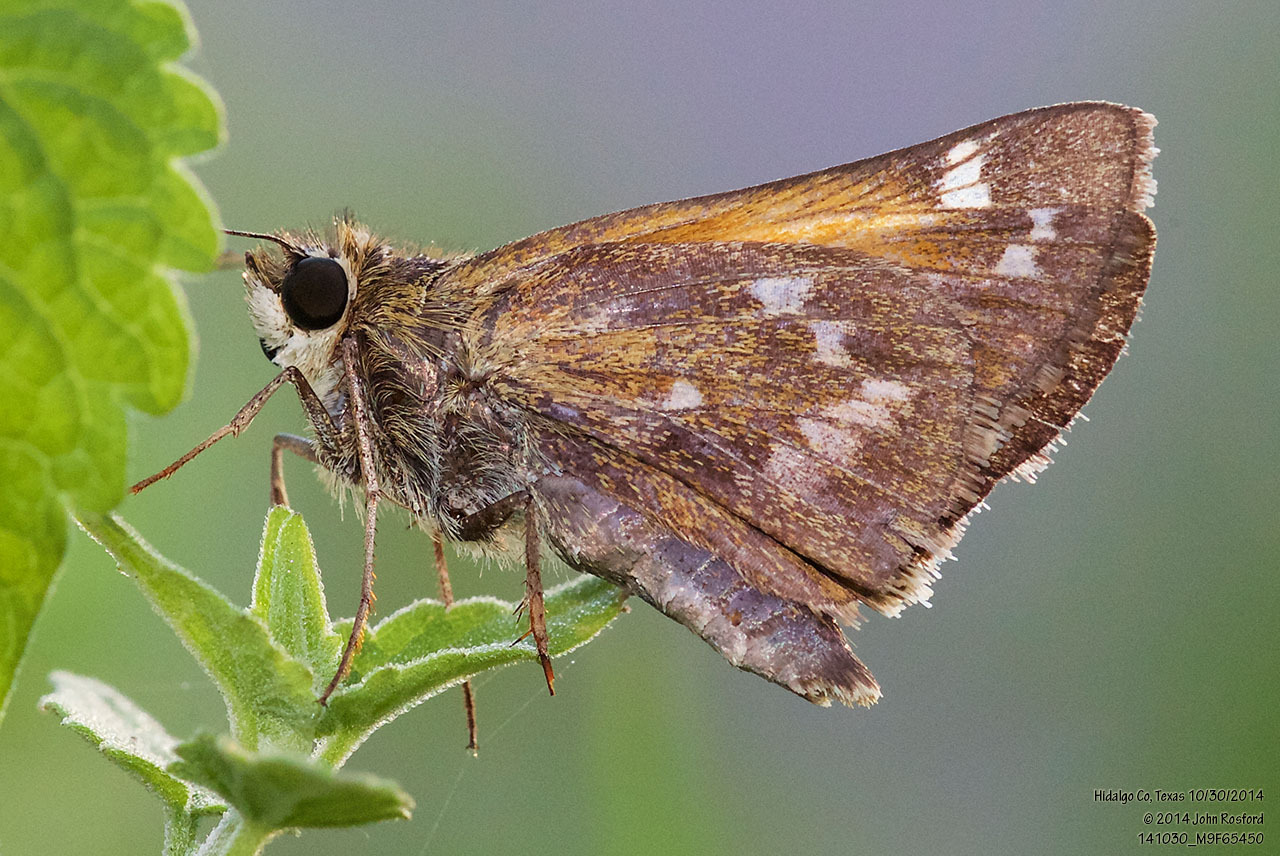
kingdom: Animalia
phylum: Arthropoda
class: Insecta
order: Lepidoptera
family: Hesperiidae
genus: Atalopedes
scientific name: Atalopedes
